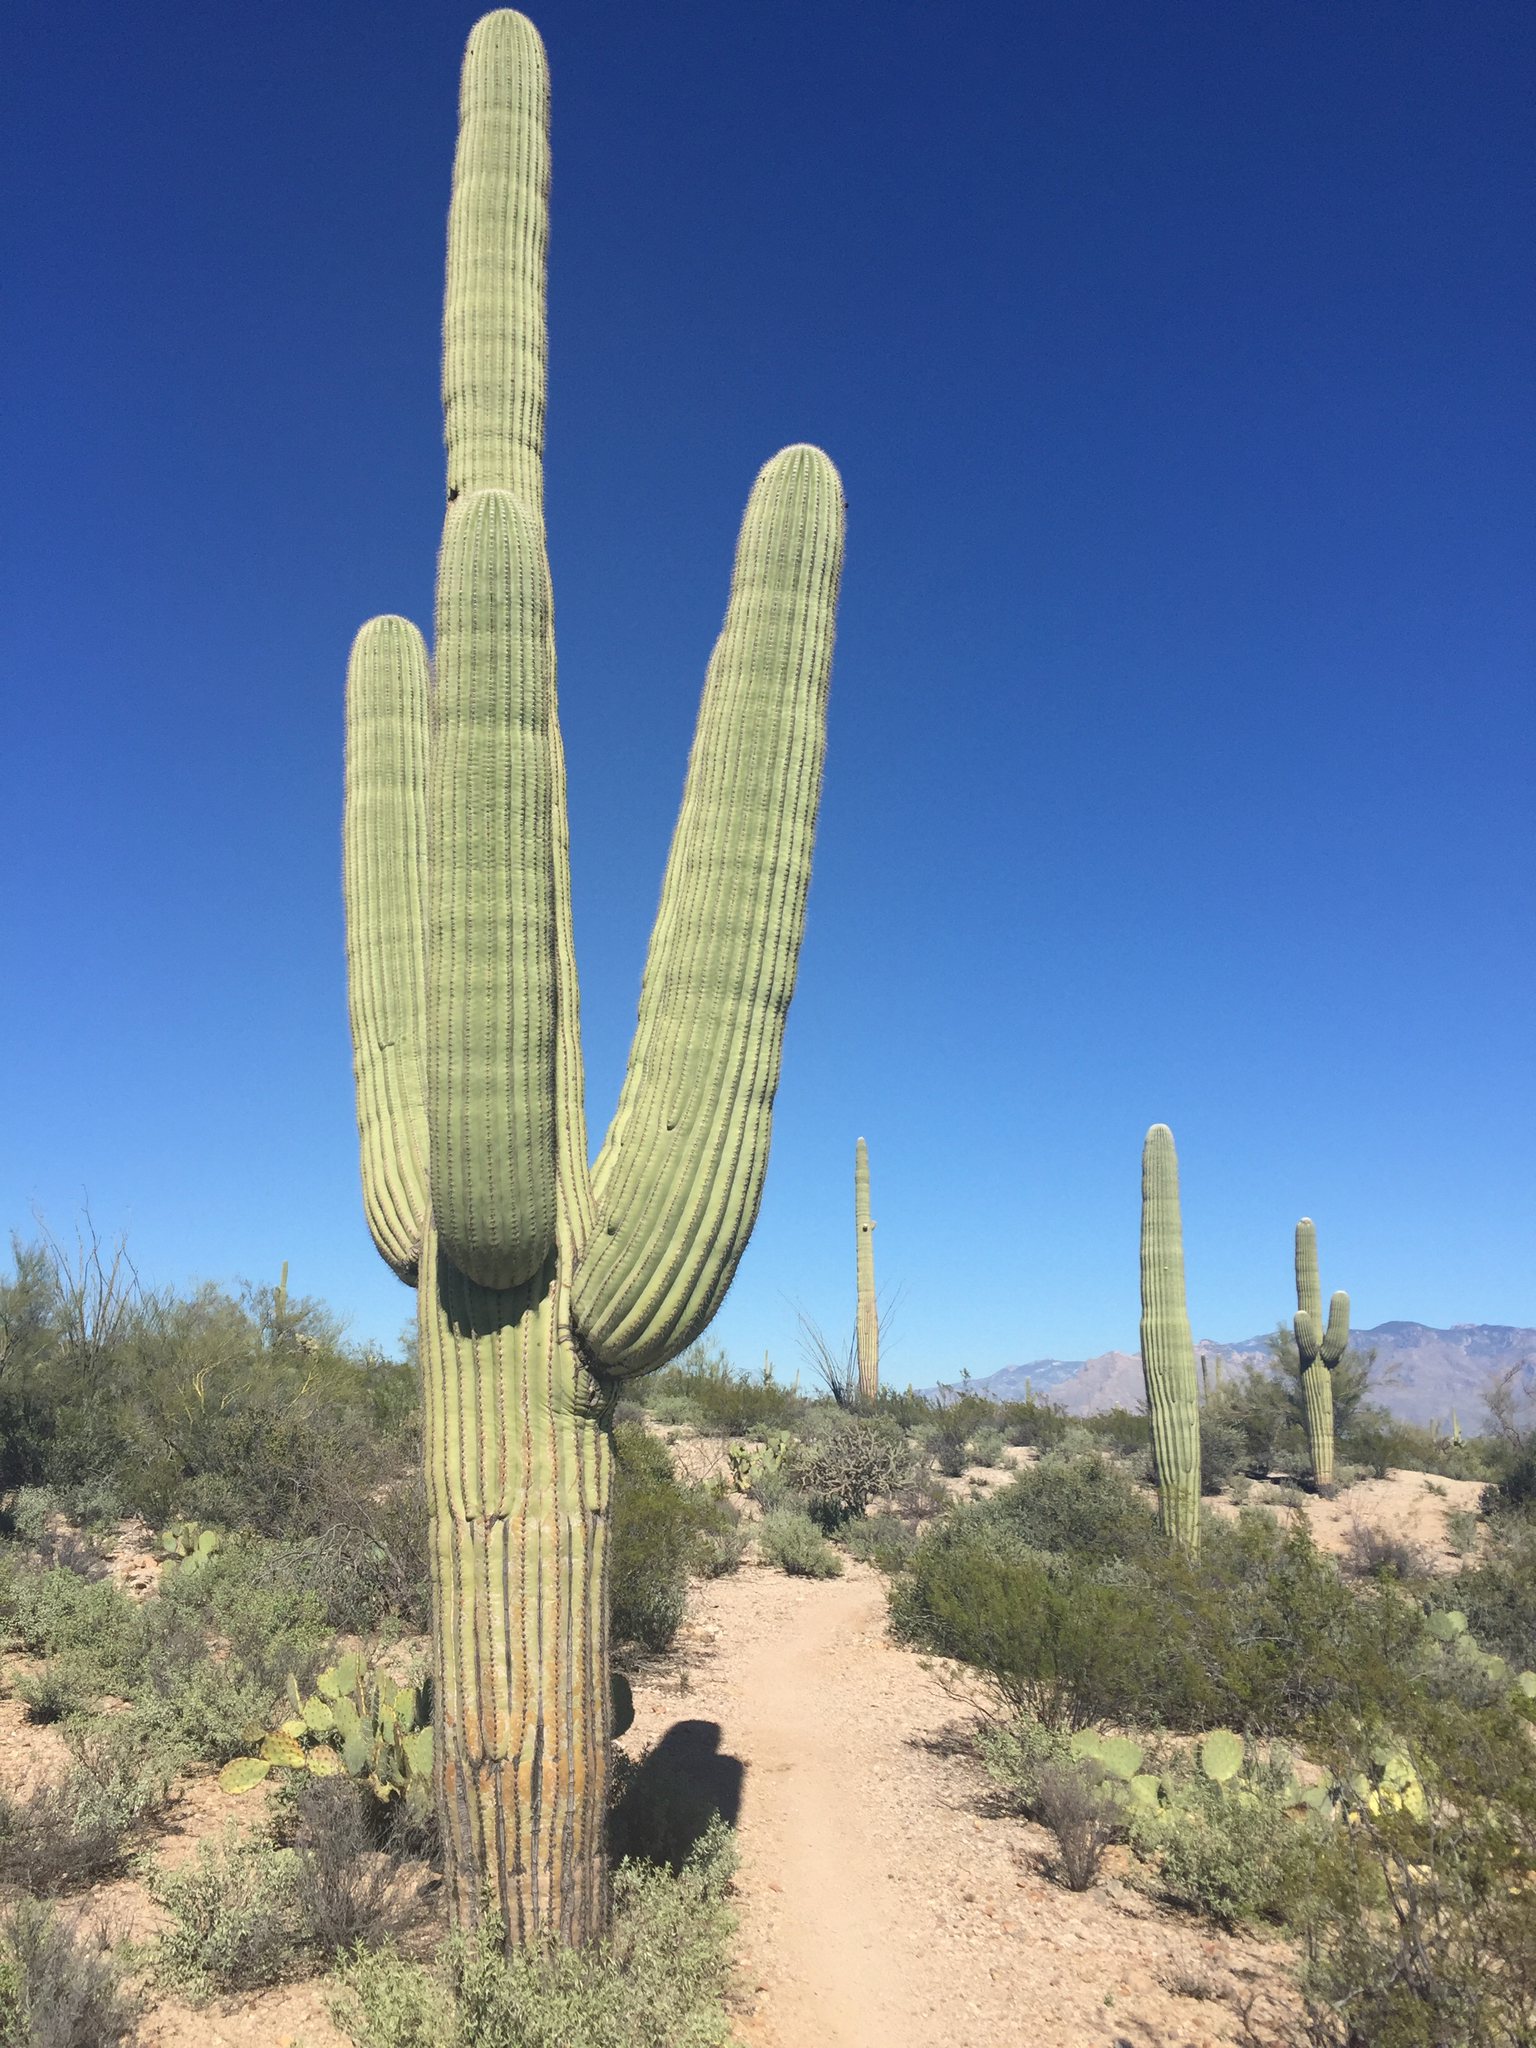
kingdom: Plantae
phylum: Tracheophyta
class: Magnoliopsida
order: Caryophyllales
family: Cactaceae
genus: Carnegiea
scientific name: Carnegiea gigantea
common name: Saguaro
